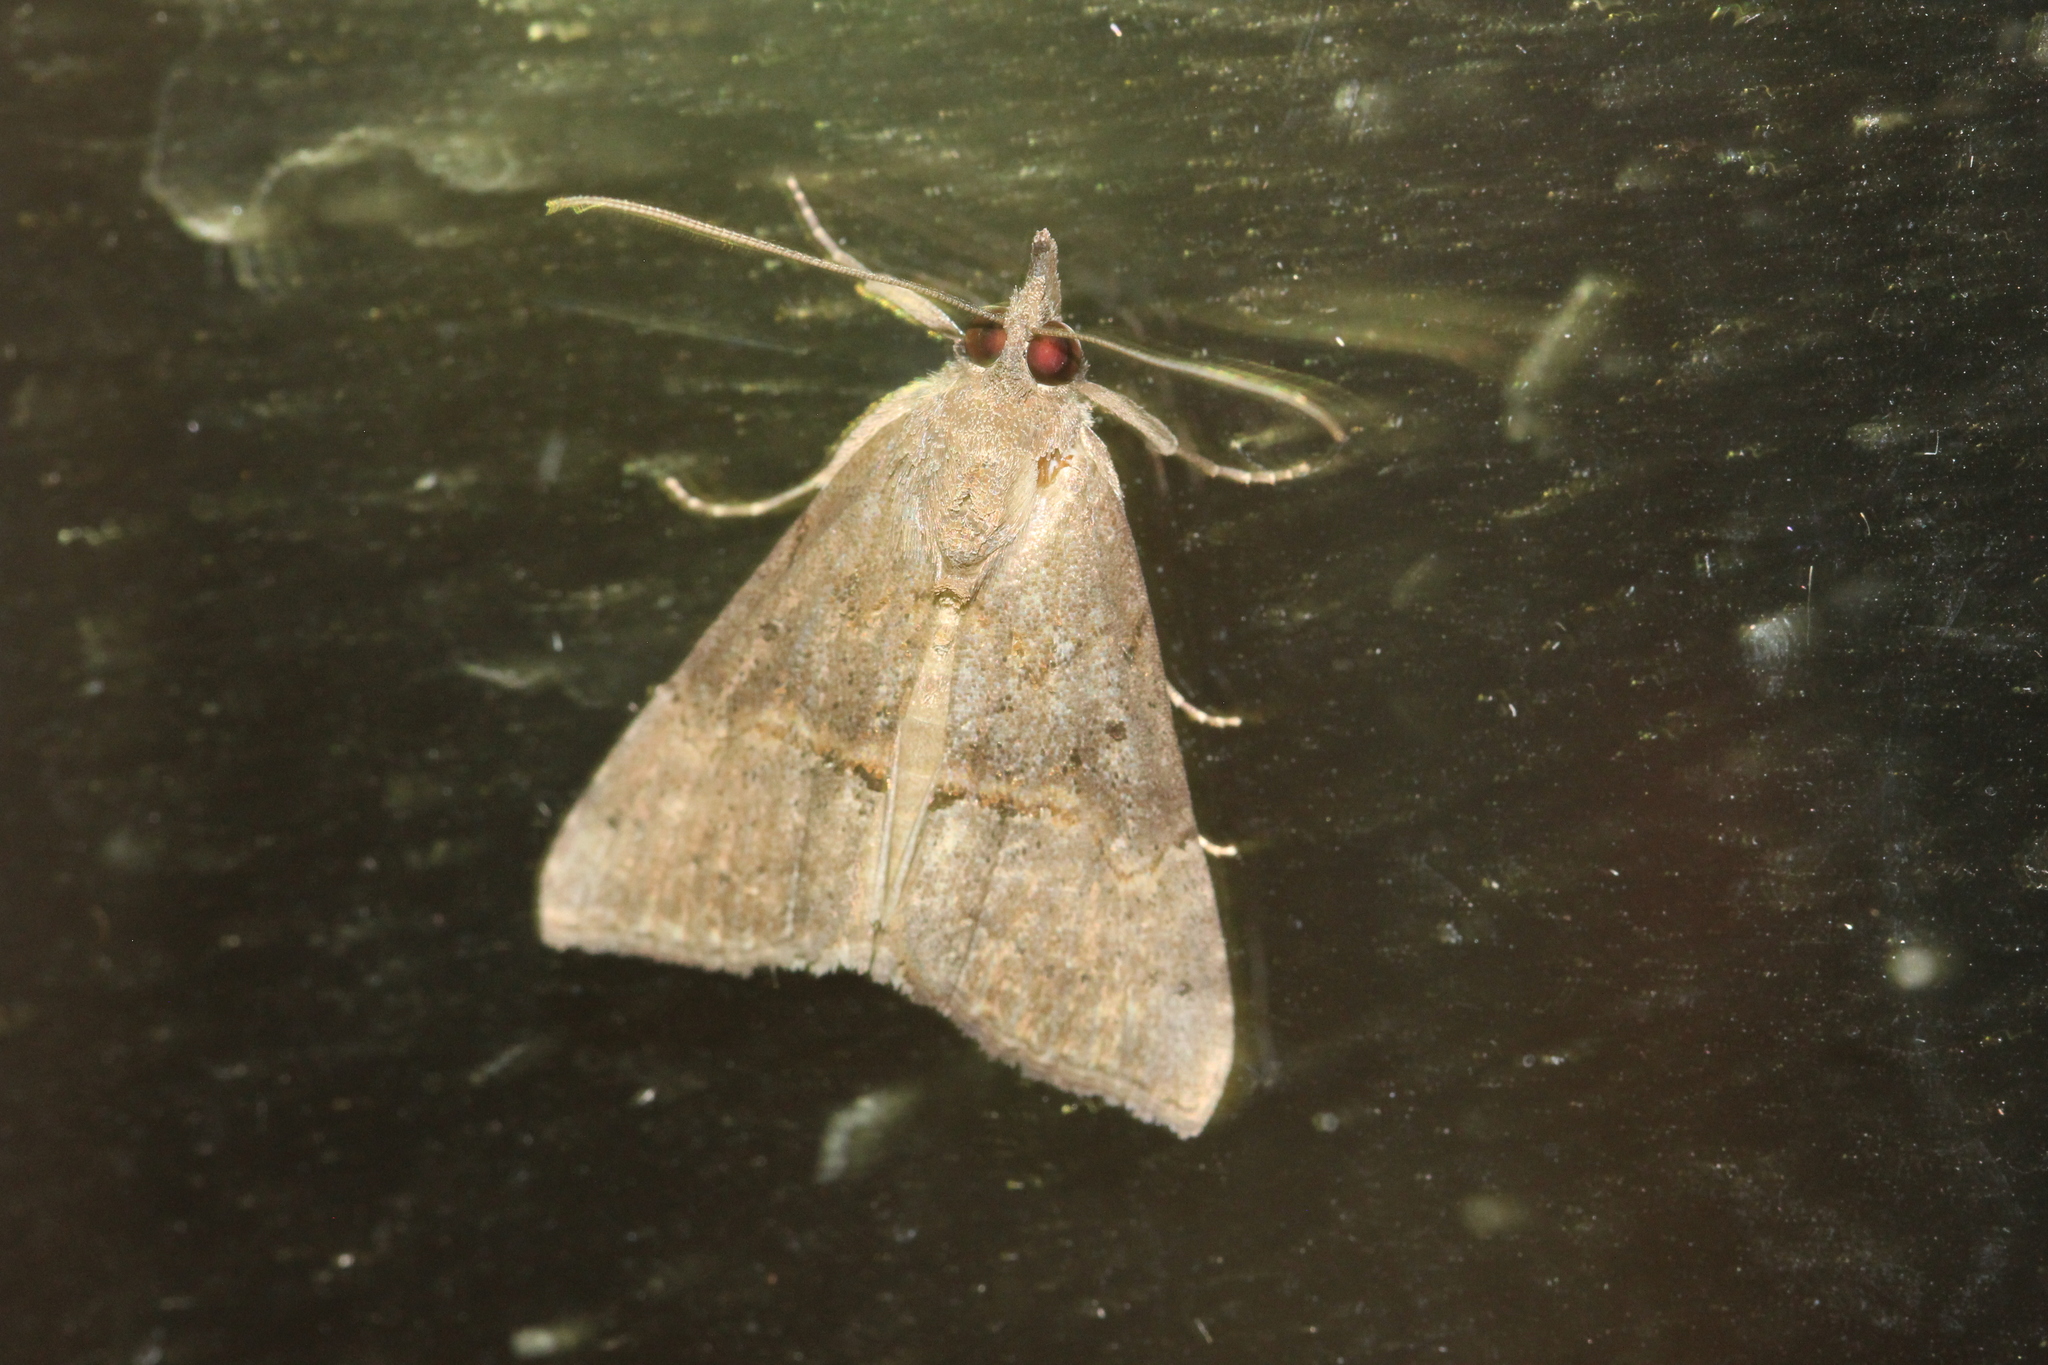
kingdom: Animalia
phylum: Arthropoda
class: Insecta
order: Lepidoptera
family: Erebidae
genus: Hypena
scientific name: Hypena scabra
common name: Green cloverworm
